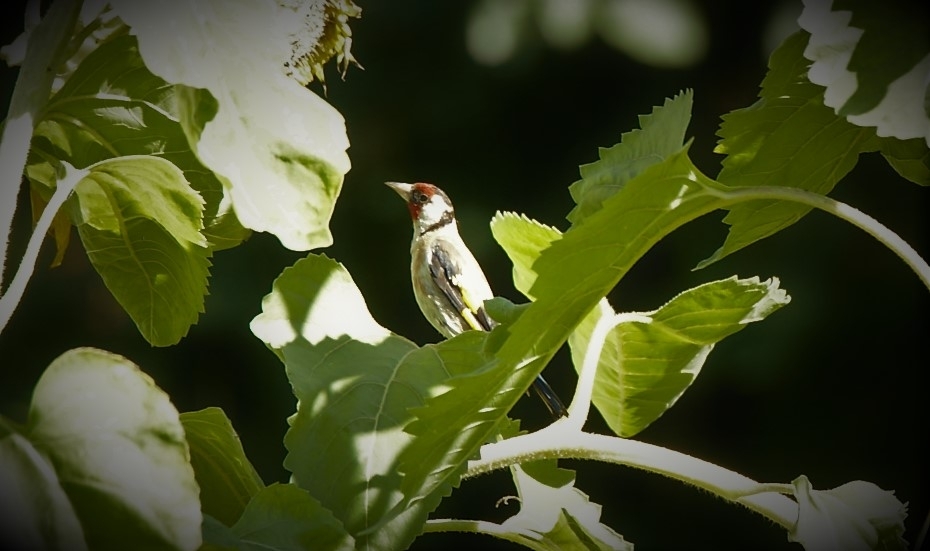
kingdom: Animalia
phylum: Chordata
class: Aves
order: Passeriformes
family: Fringillidae
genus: Carduelis
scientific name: Carduelis carduelis
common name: European goldfinch
